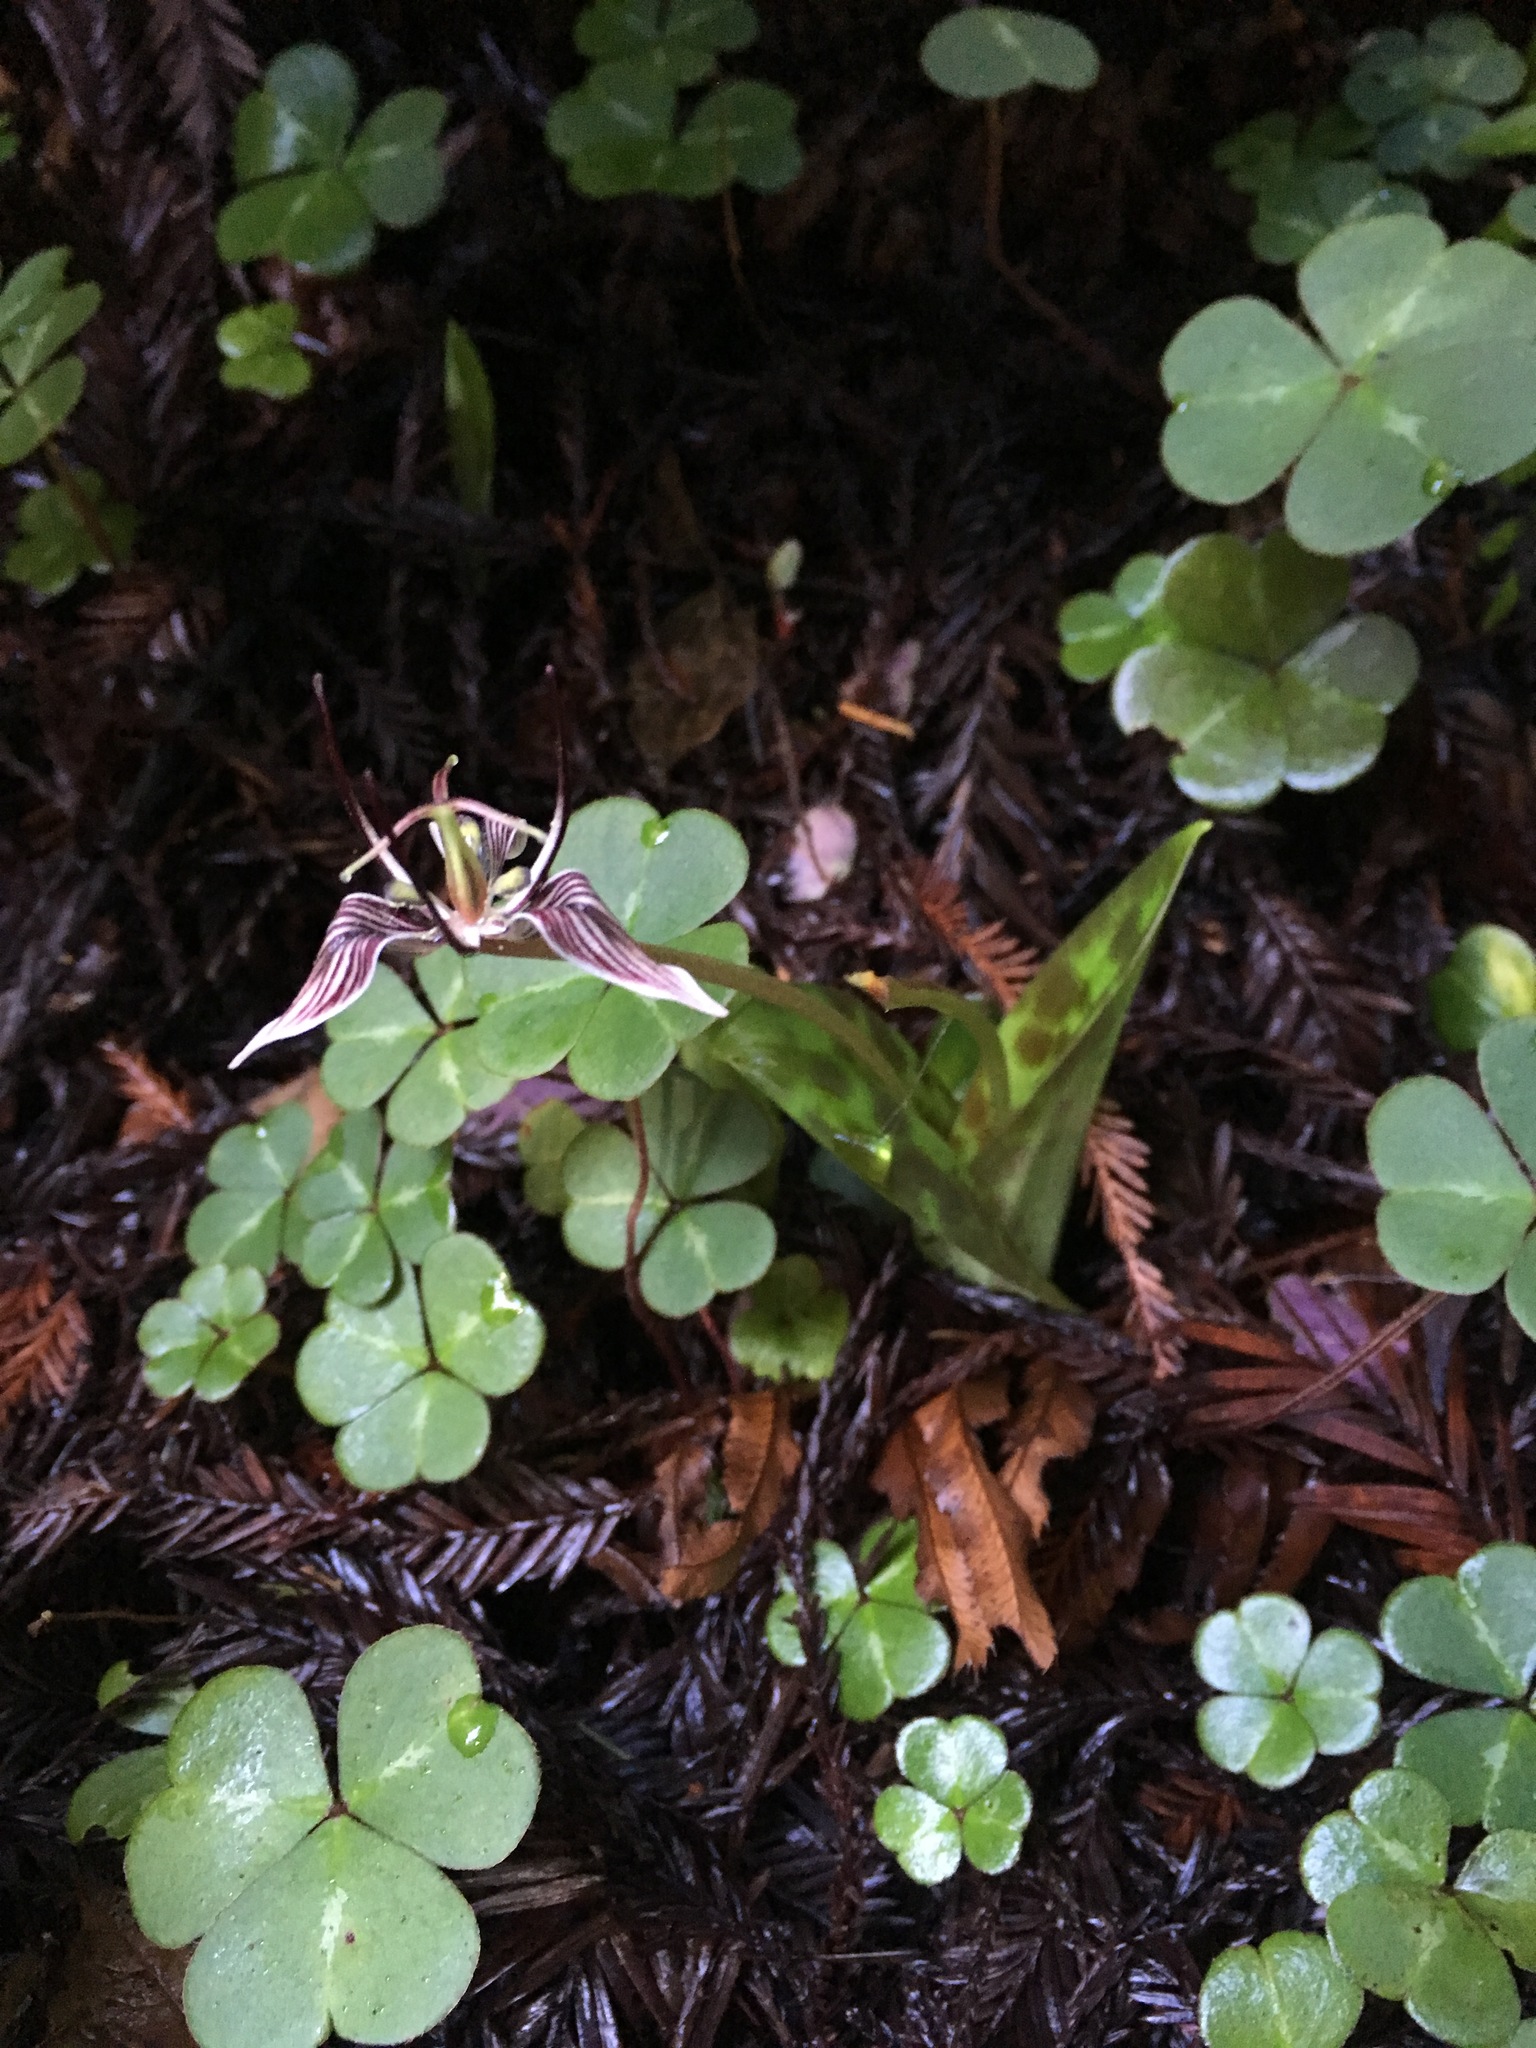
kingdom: Plantae
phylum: Tracheophyta
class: Liliopsida
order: Liliales
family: Liliaceae
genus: Scoliopus
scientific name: Scoliopus bigelovii
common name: Foetid adder's-tongue
